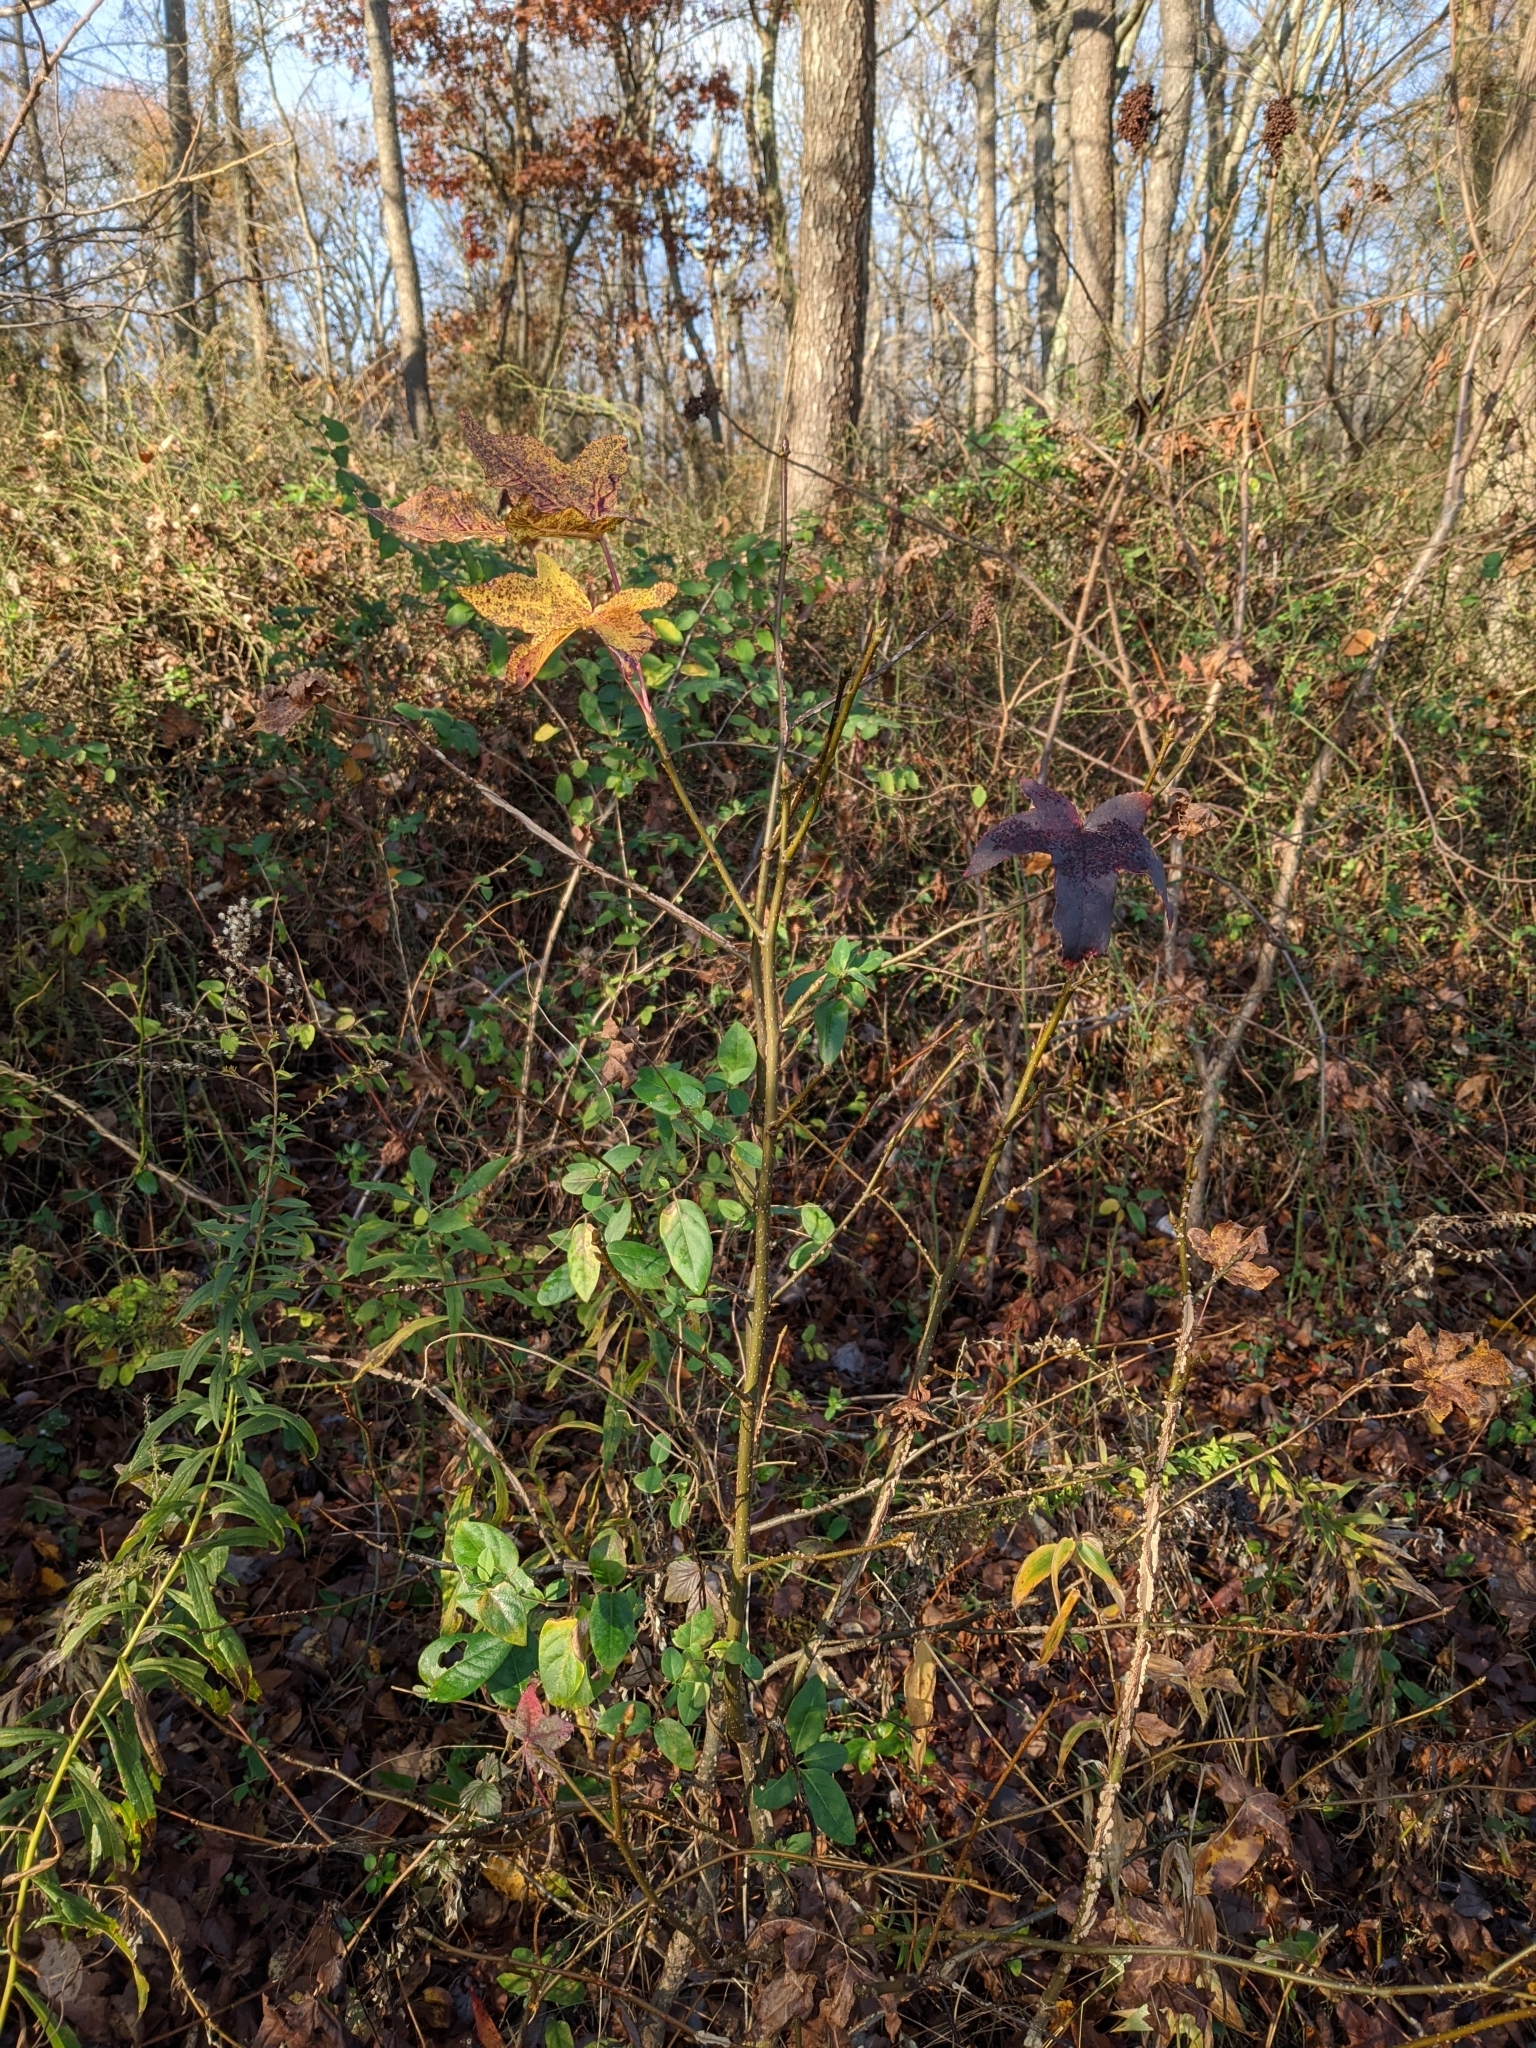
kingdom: Plantae
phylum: Tracheophyta
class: Magnoliopsida
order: Saxifragales
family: Altingiaceae
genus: Liquidambar
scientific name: Liquidambar styraciflua
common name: Sweet gum
